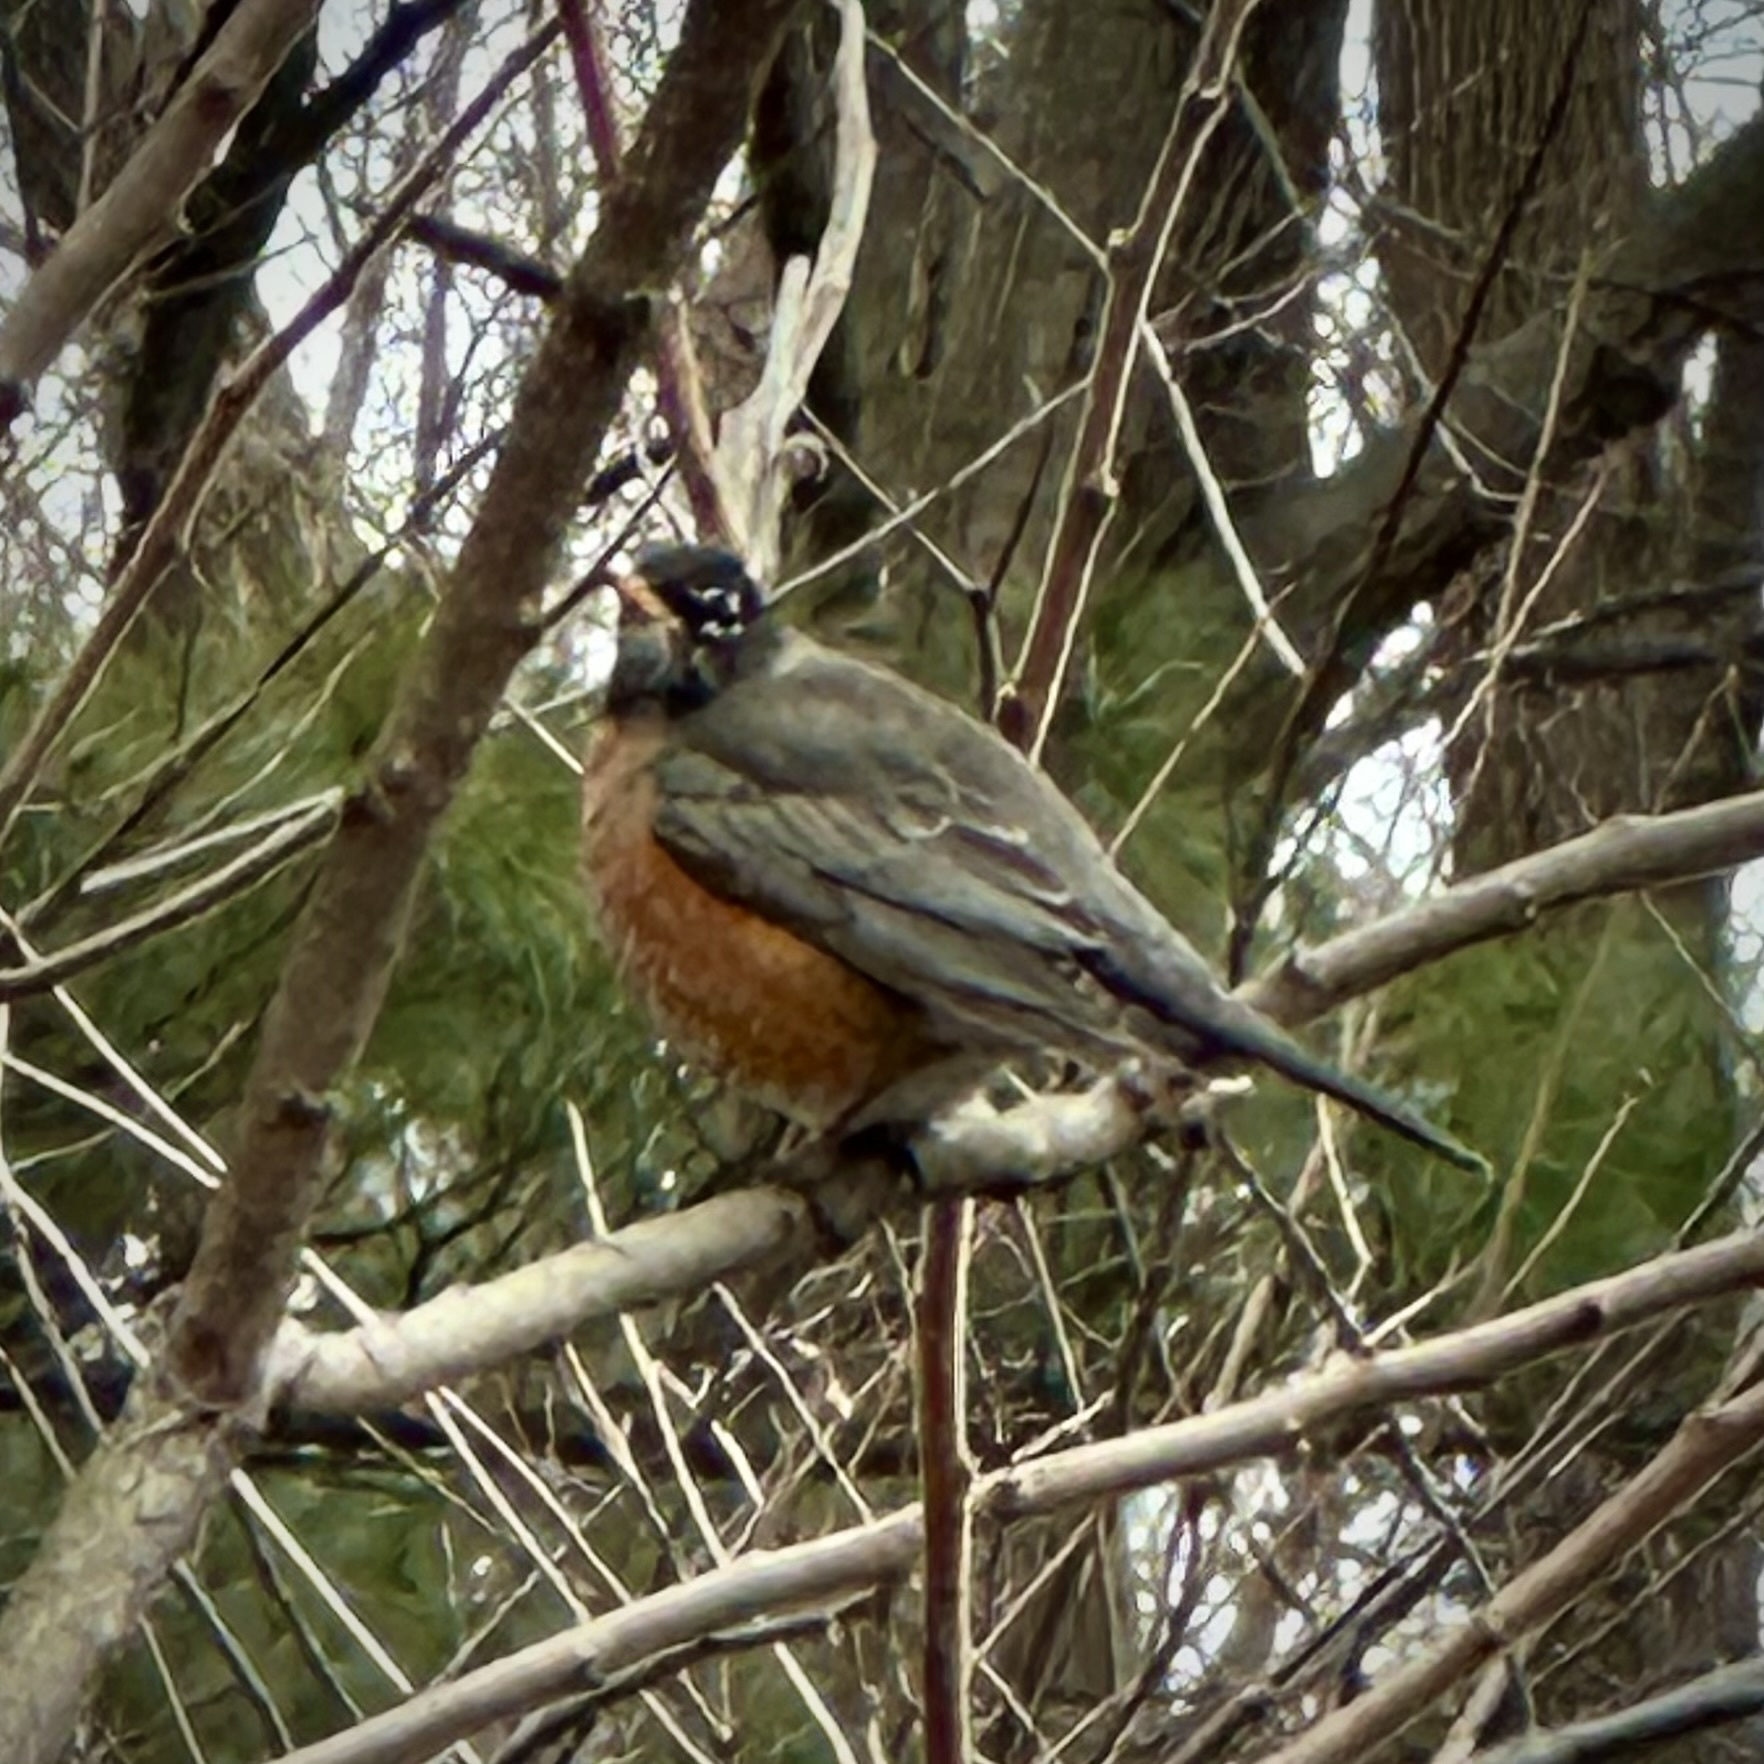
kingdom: Animalia
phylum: Chordata
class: Aves
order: Passeriformes
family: Turdidae
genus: Turdus
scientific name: Turdus migratorius
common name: American robin
